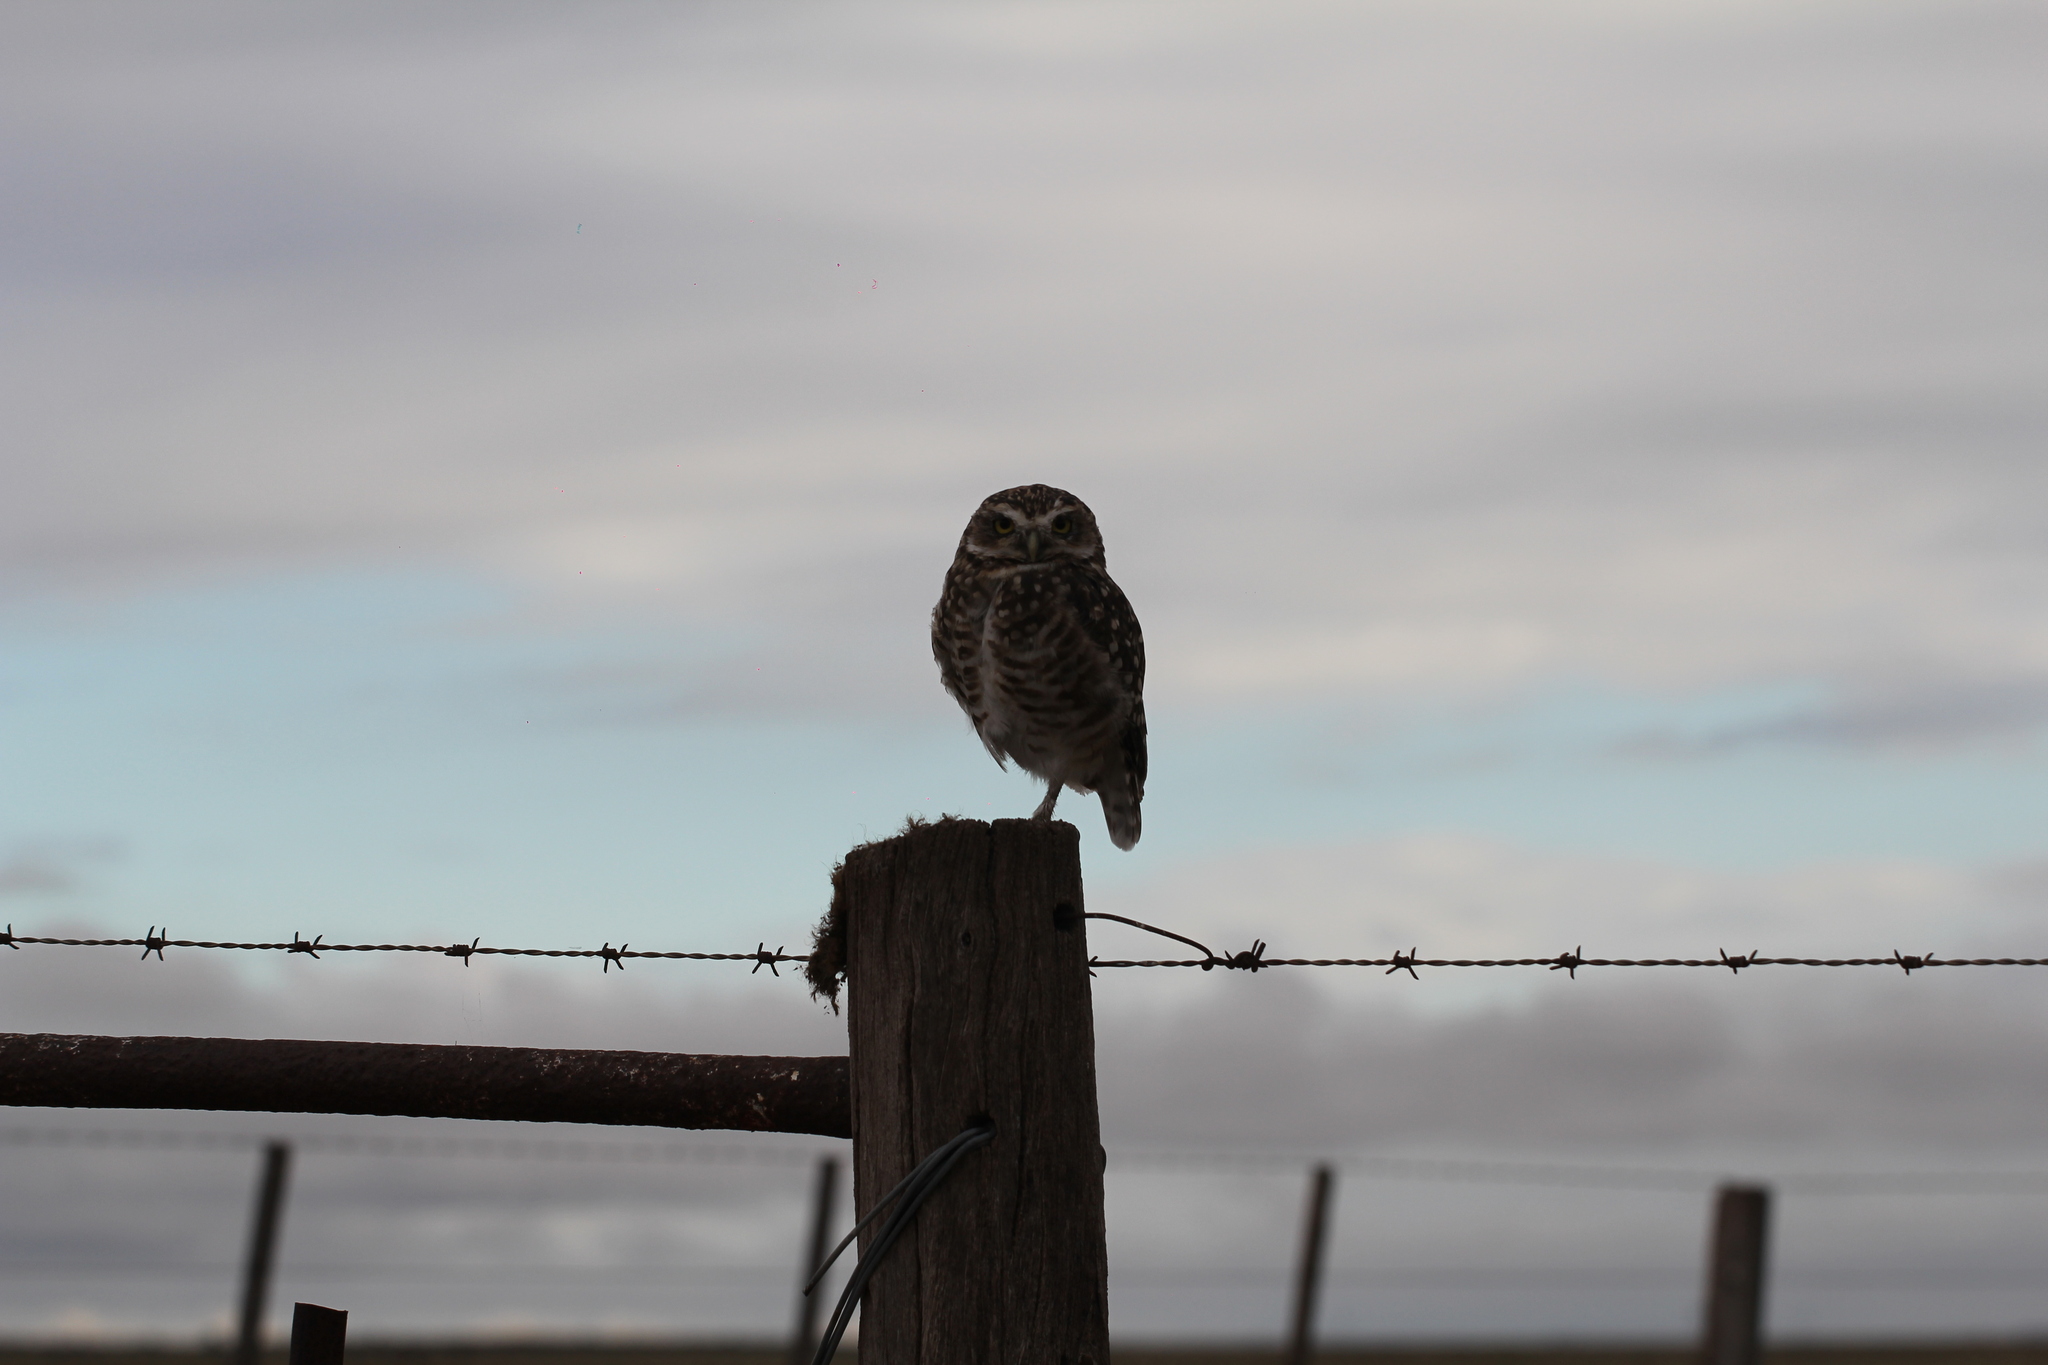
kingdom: Animalia
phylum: Chordata
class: Aves
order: Strigiformes
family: Strigidae
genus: Athene
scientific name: Athene cunicularia
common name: Burrowing owl
